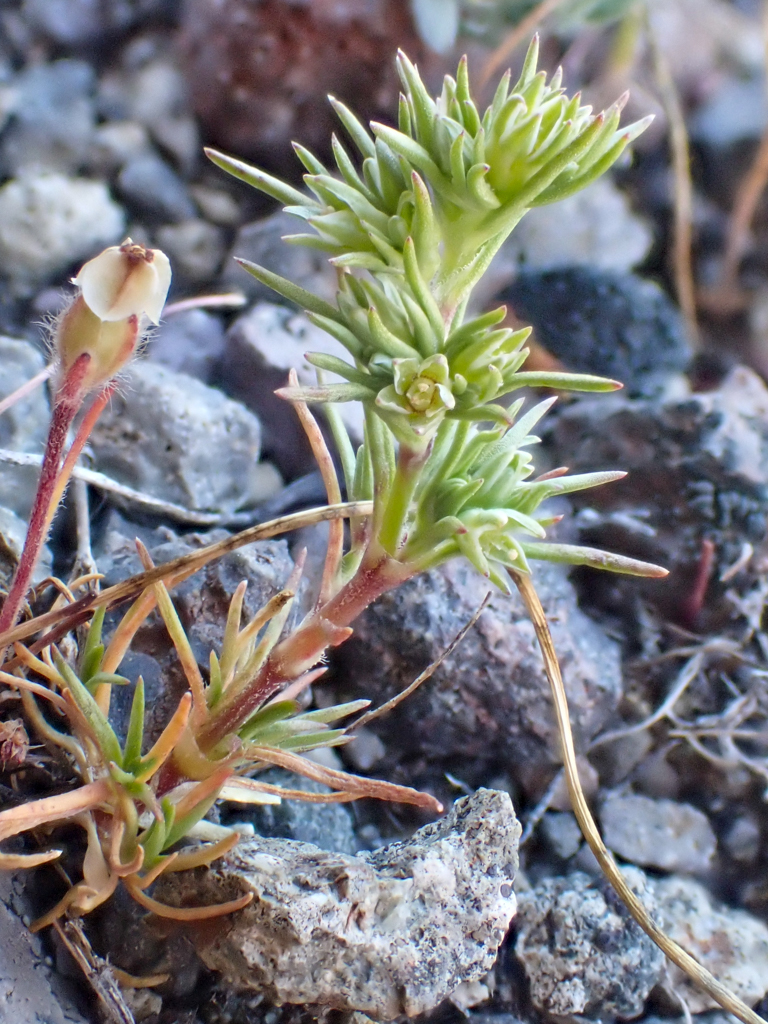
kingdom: Plantae
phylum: Tracheophyta
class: Magnoliopsida
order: Caryophyllales
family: Caryophyllaceae
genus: Scleranthus
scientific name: Scleranthus annuus
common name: Annual knawel
